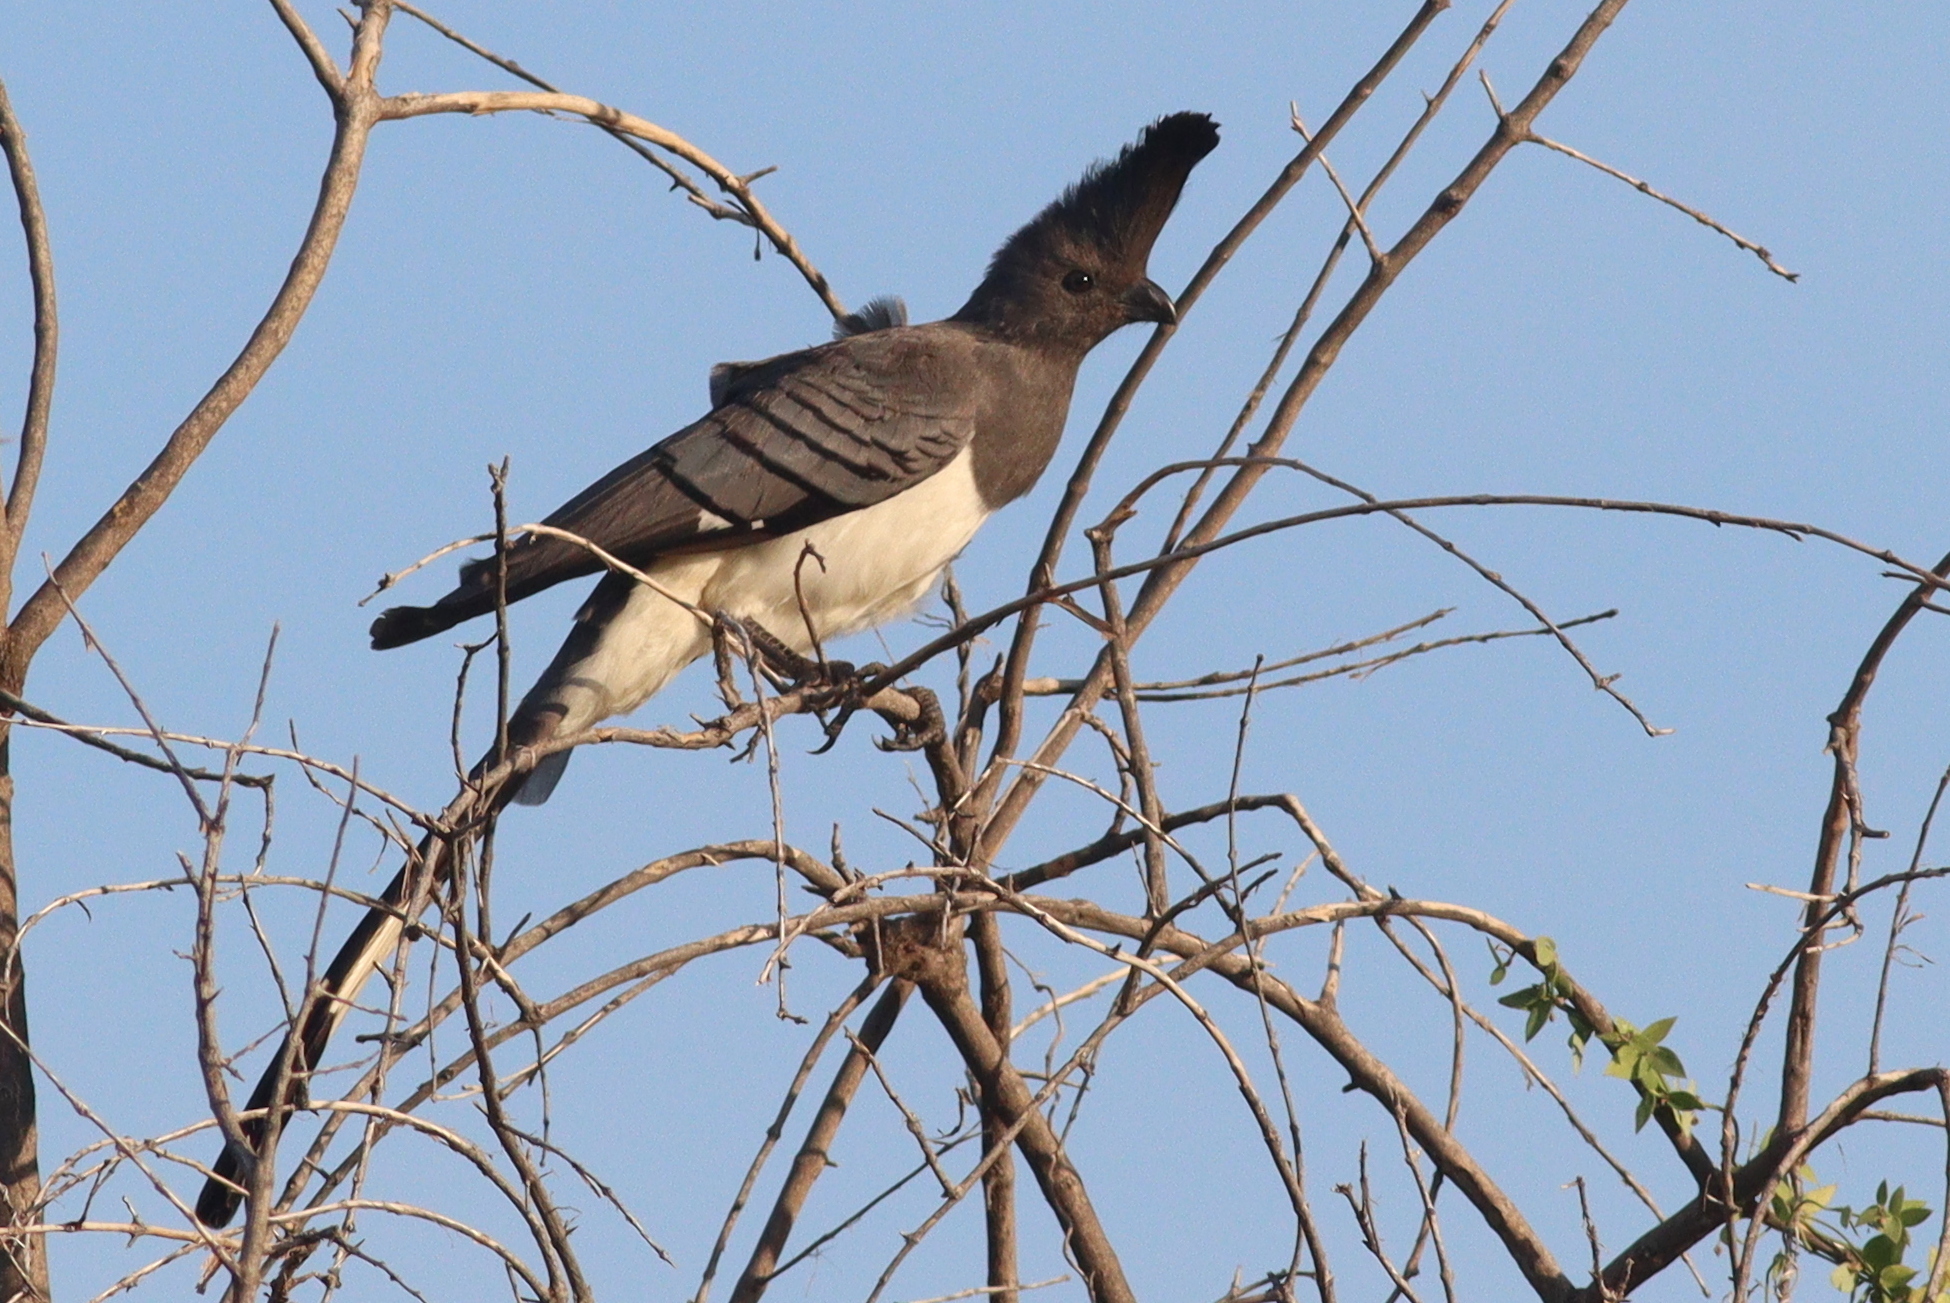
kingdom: Animalia
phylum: Chordata
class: Aves
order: Musophagiformes
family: Musophagidae
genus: Corythaixoides
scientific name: Corythaixoides leucogaster
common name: White-bellied go-away-bird
